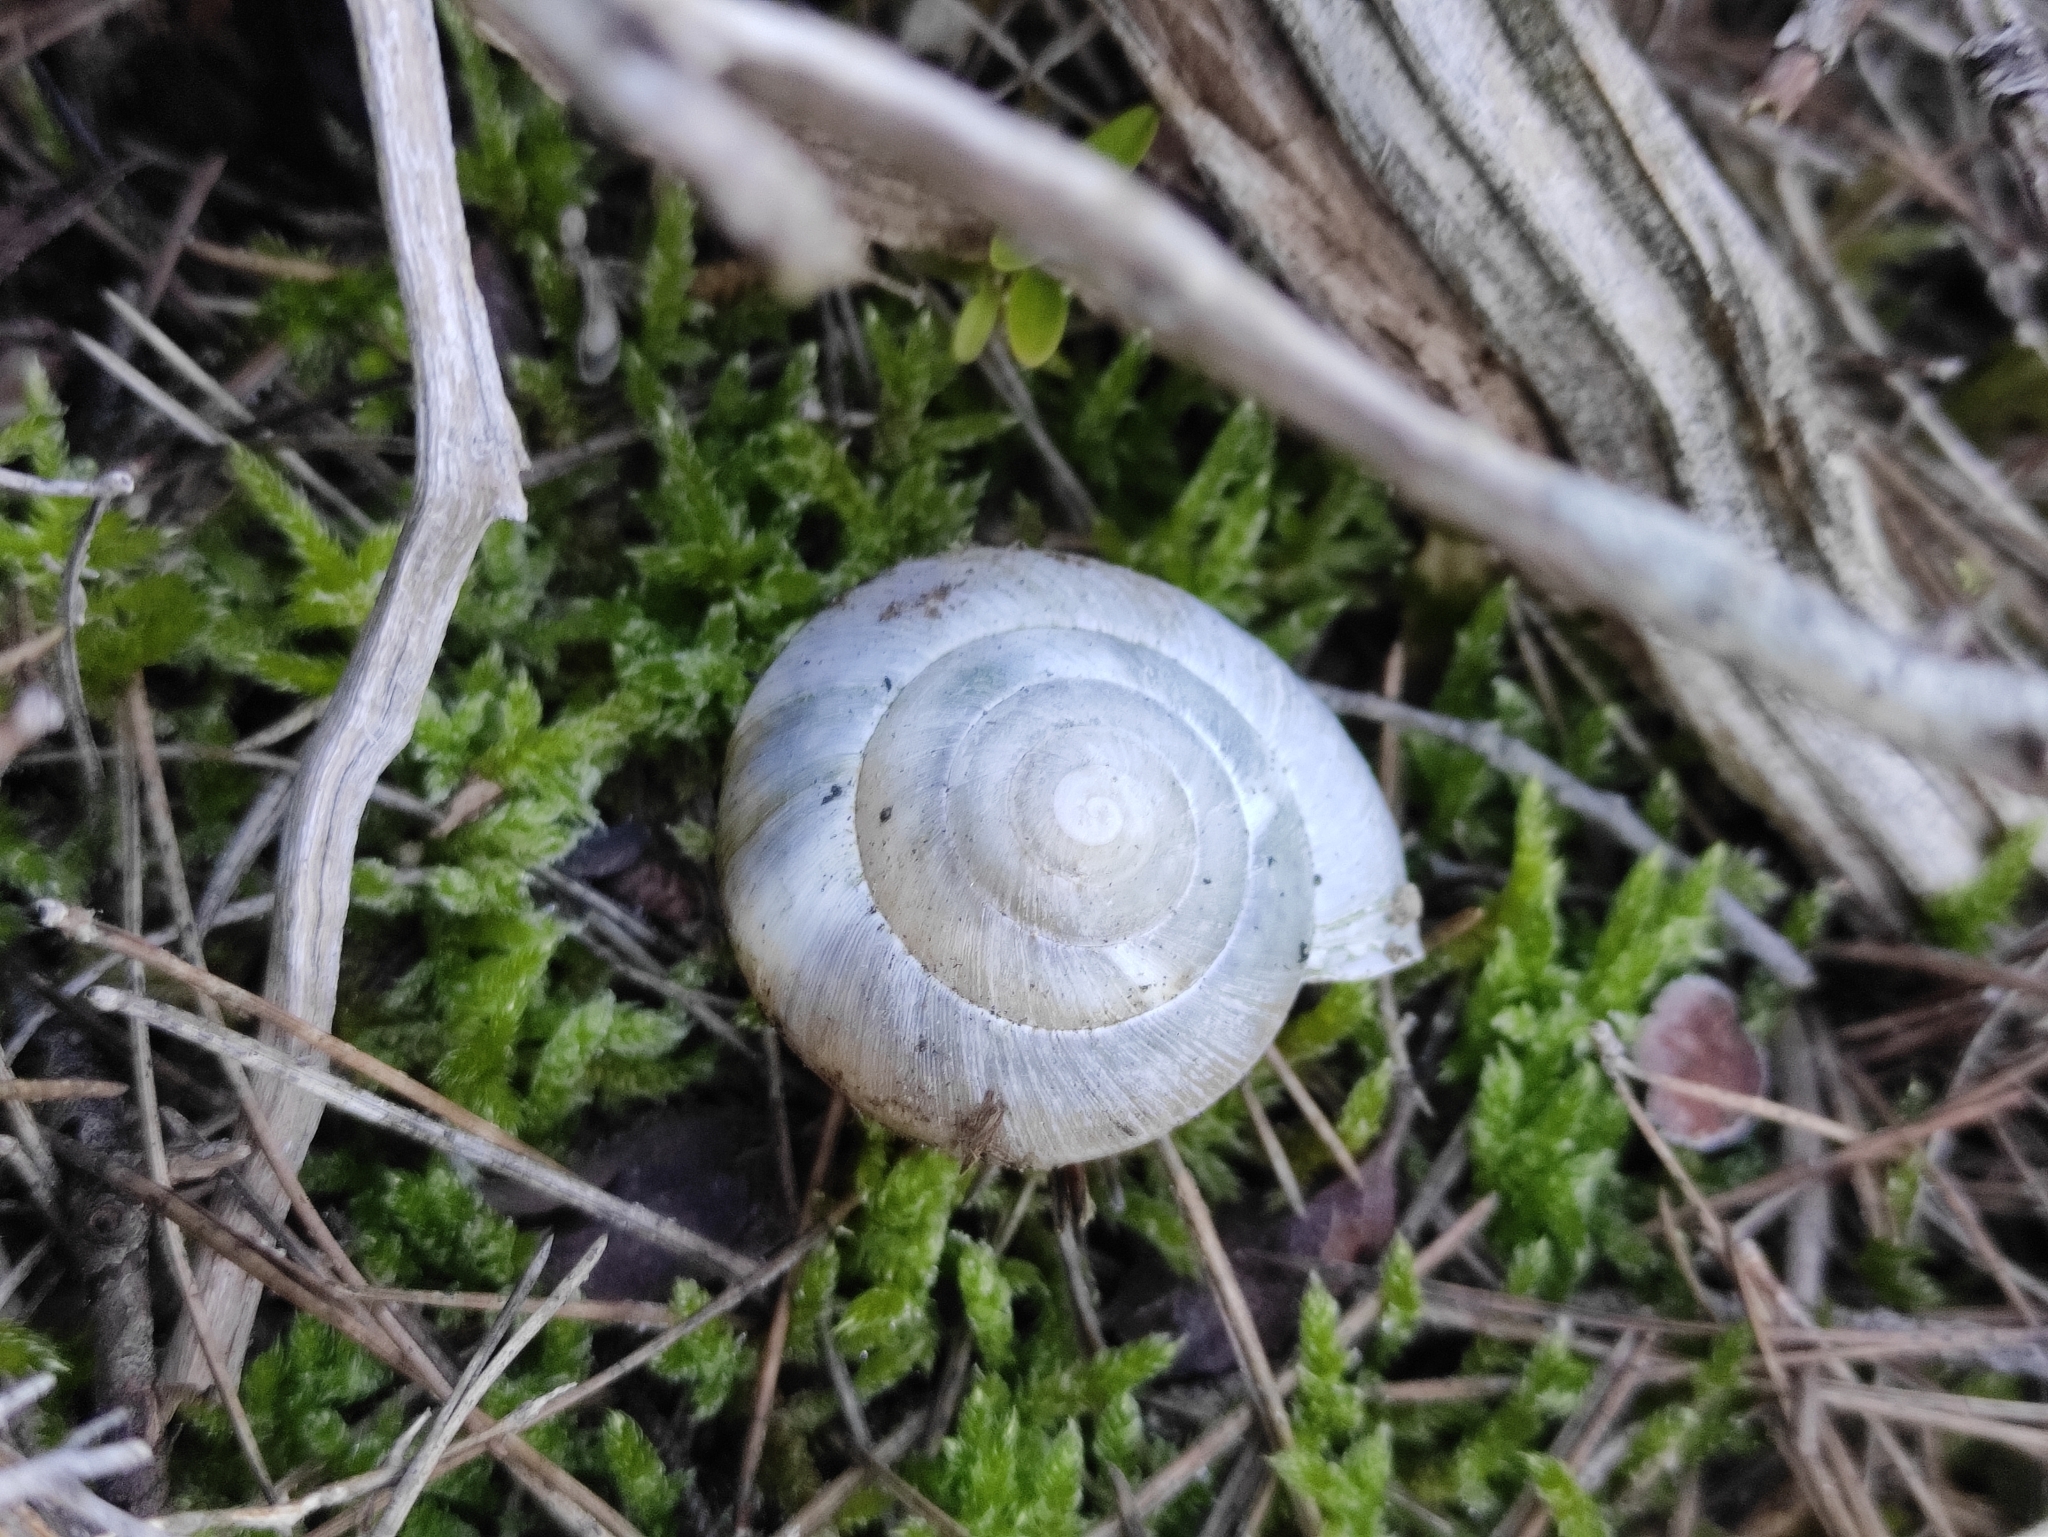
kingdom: Animalia
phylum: Mollusca
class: Gastropoda
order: Stylommatophora
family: Zonitidae
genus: Zonites
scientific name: Zonites algirus
